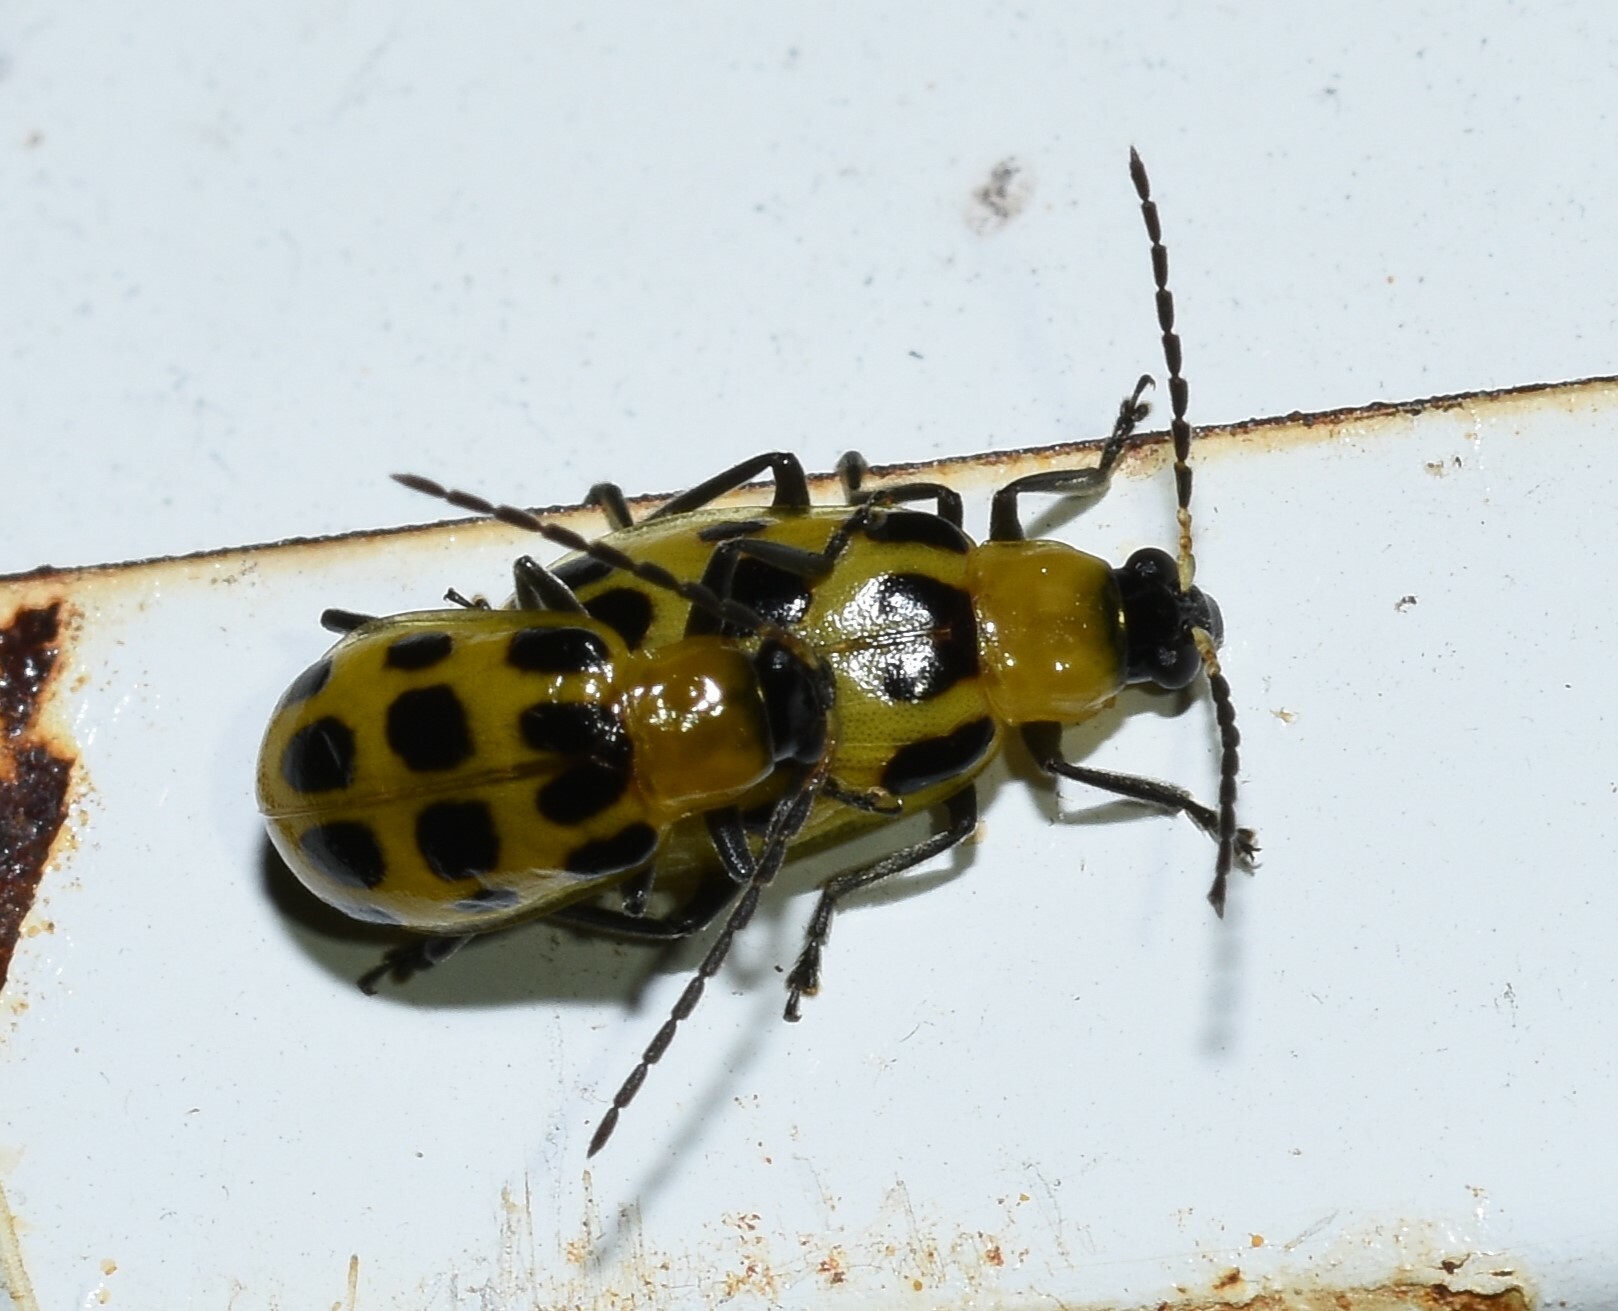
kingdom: Animalia
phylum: Arthropoda
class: Insecta
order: Coleoptera
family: Chrysomelidae
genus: Diabrotica
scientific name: Diabrotica undecimpunctata
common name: Spotted cucumber beetle
